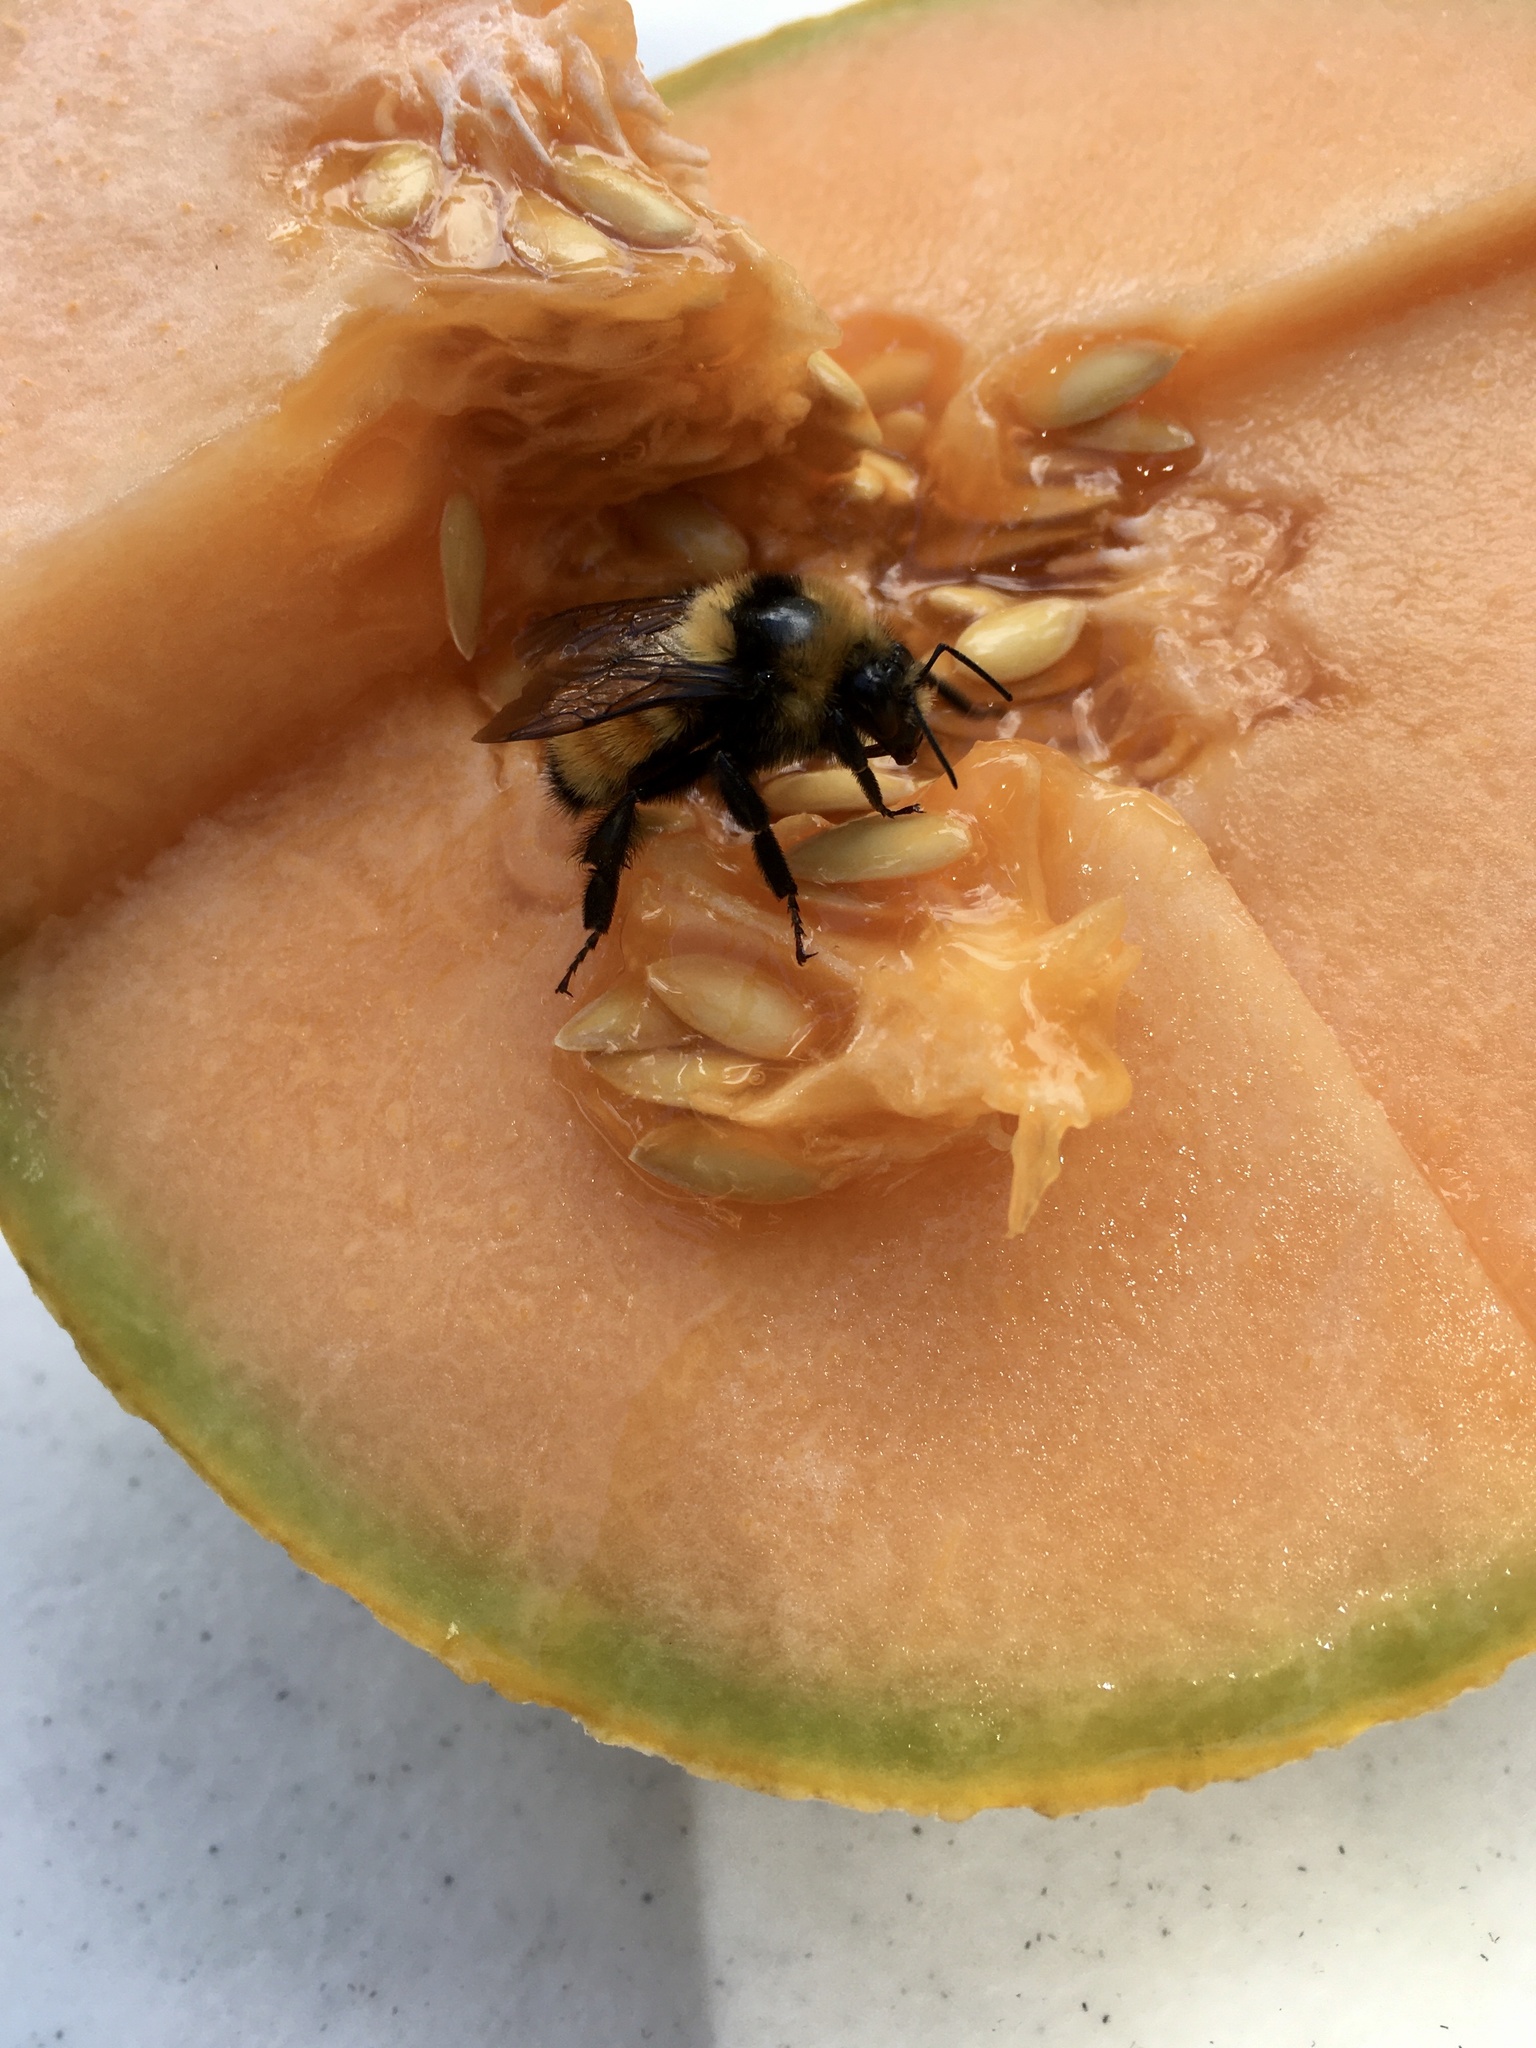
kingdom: Animalia
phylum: Arthropoda
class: Insecta
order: Hymenoptera
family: Apidae
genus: Bombus
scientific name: Bombus huntii
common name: Hunt bumble bee
